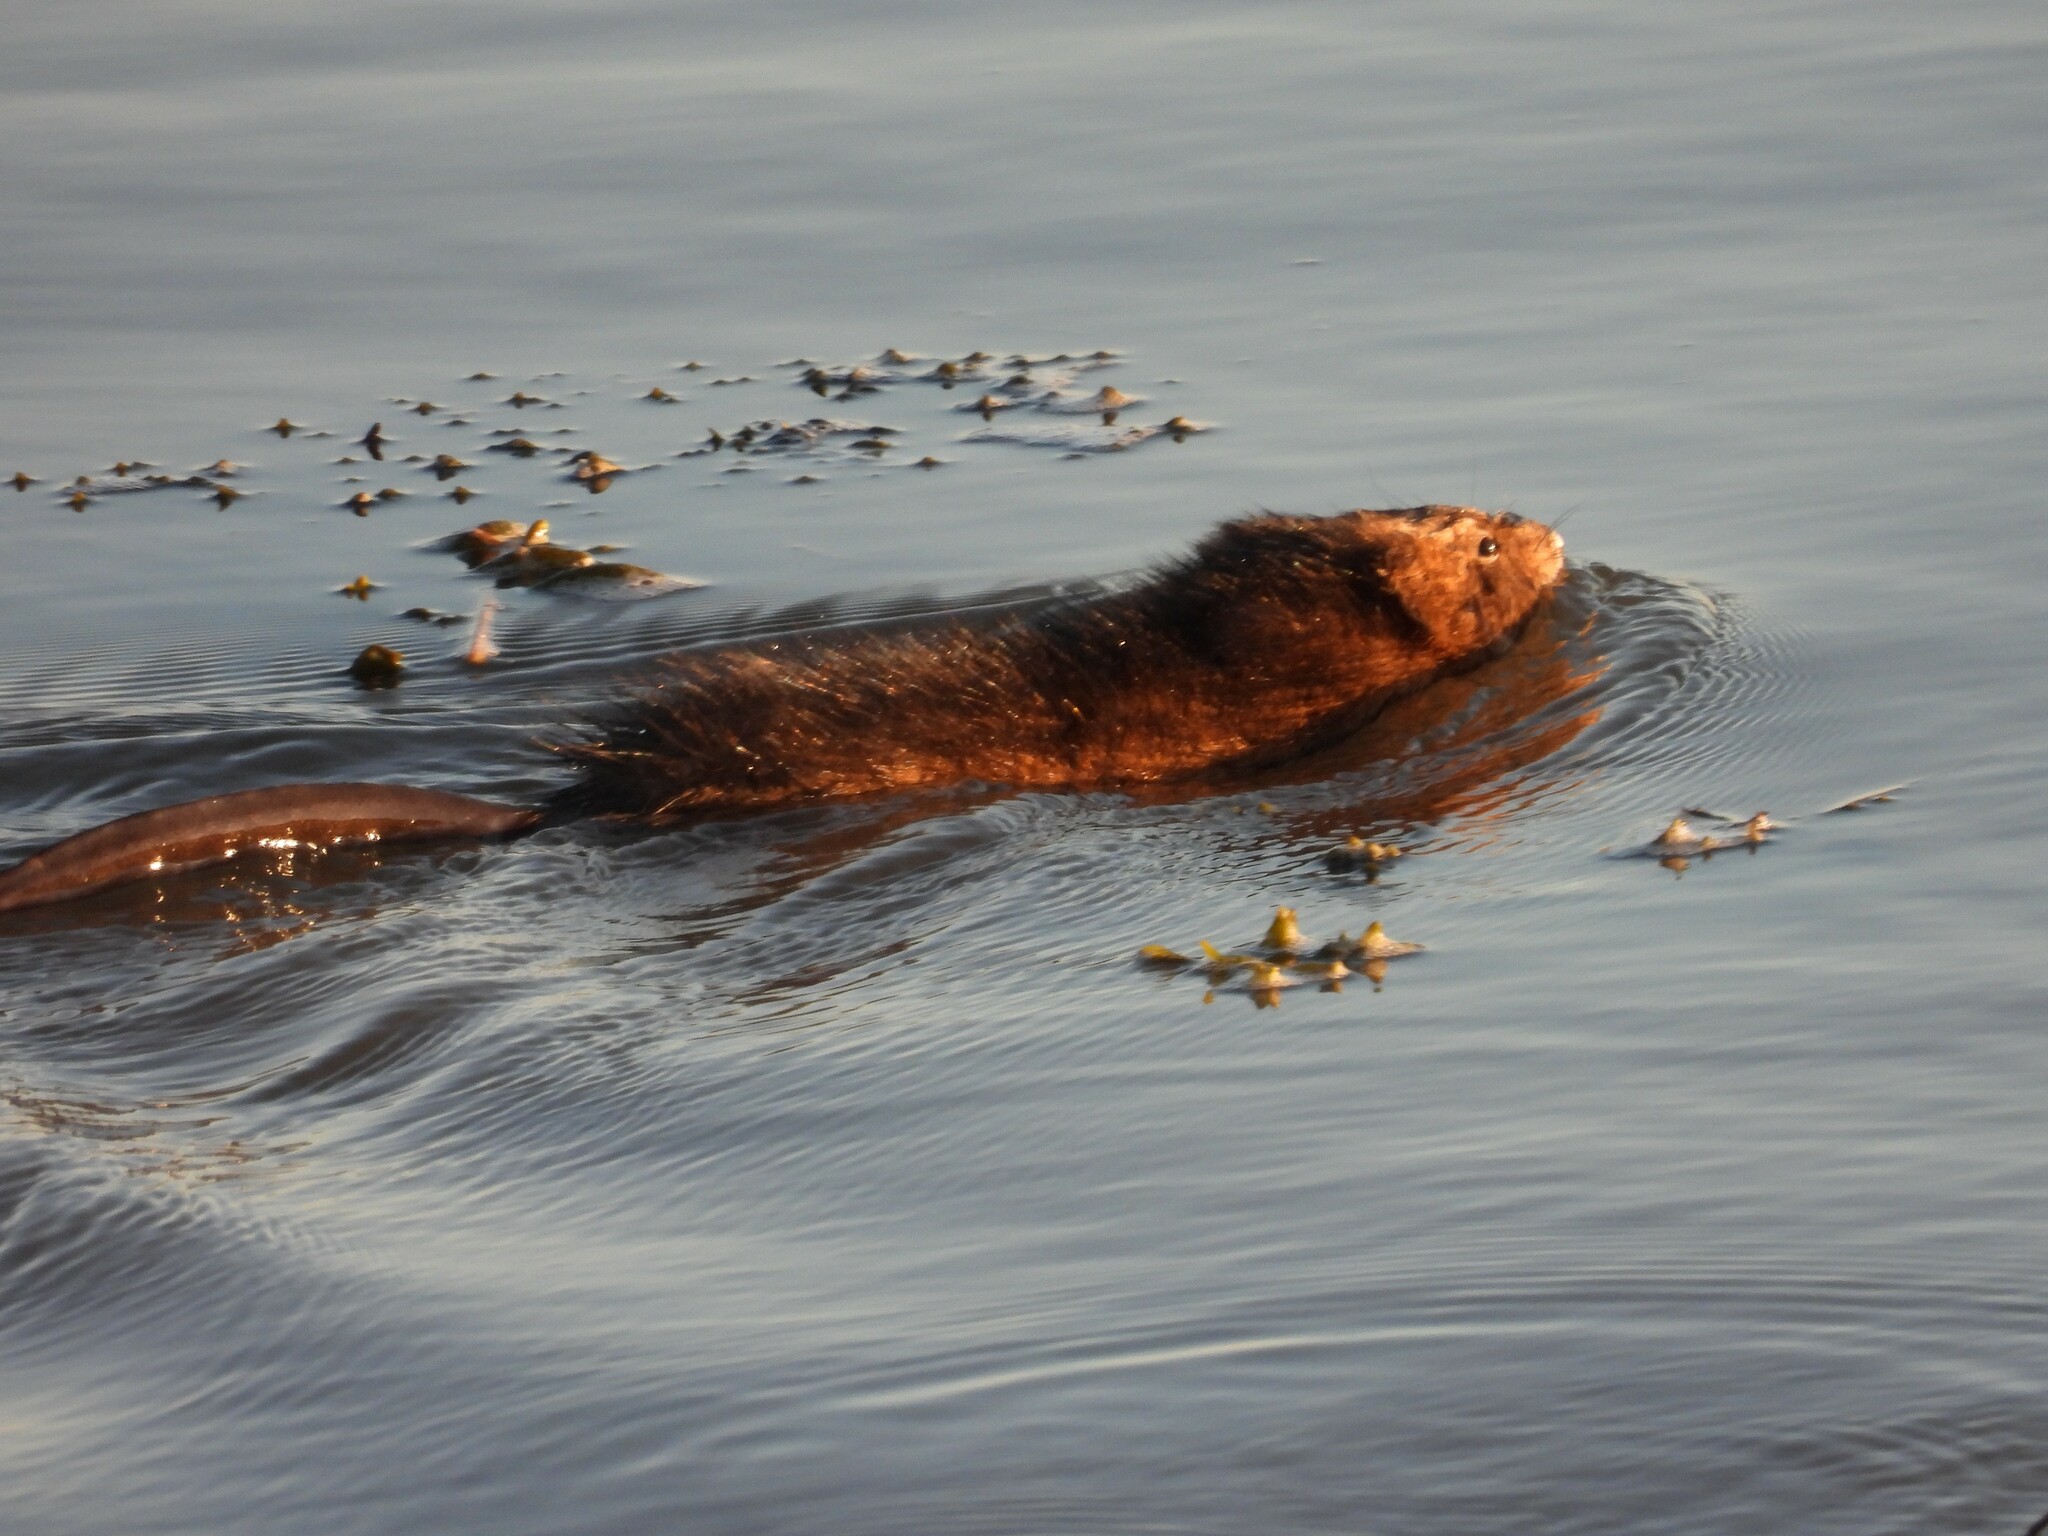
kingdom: Animalia
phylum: Chordata
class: Mammalia
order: Rodentia
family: Cricetidae
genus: Ondatra
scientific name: Ondatra zibethicus
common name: Muskrat
